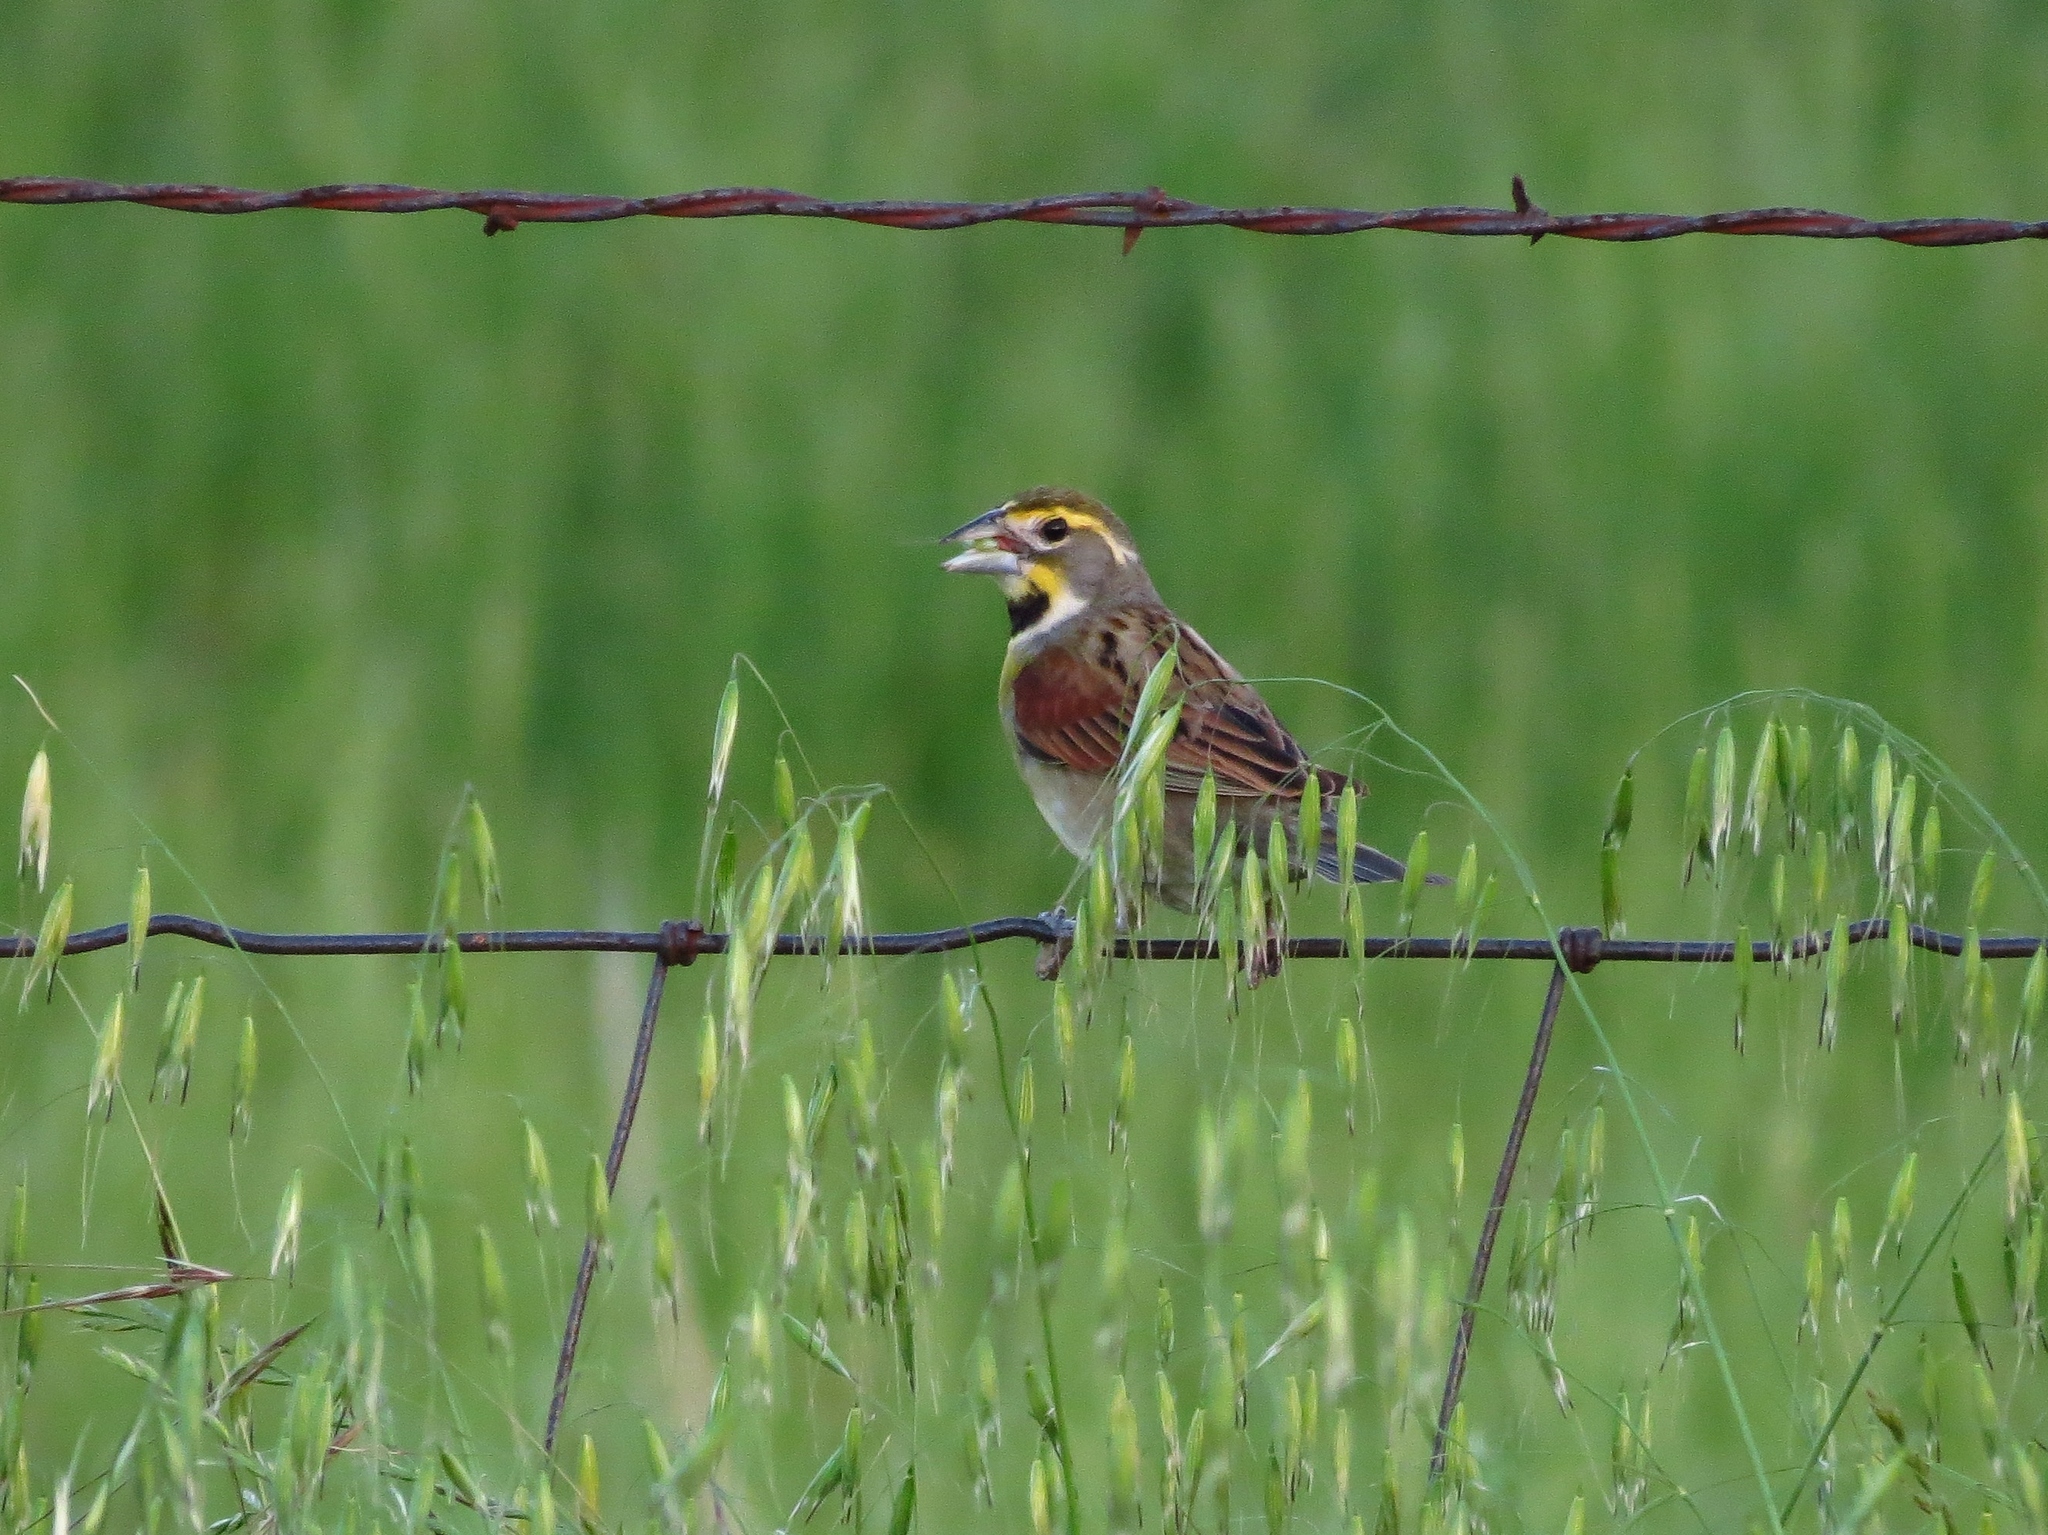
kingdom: Animalia
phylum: Chordata
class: Aves
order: Passeriformes
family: Cardinalidae
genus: Spiza
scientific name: Spiza americana
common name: Dickcissel
